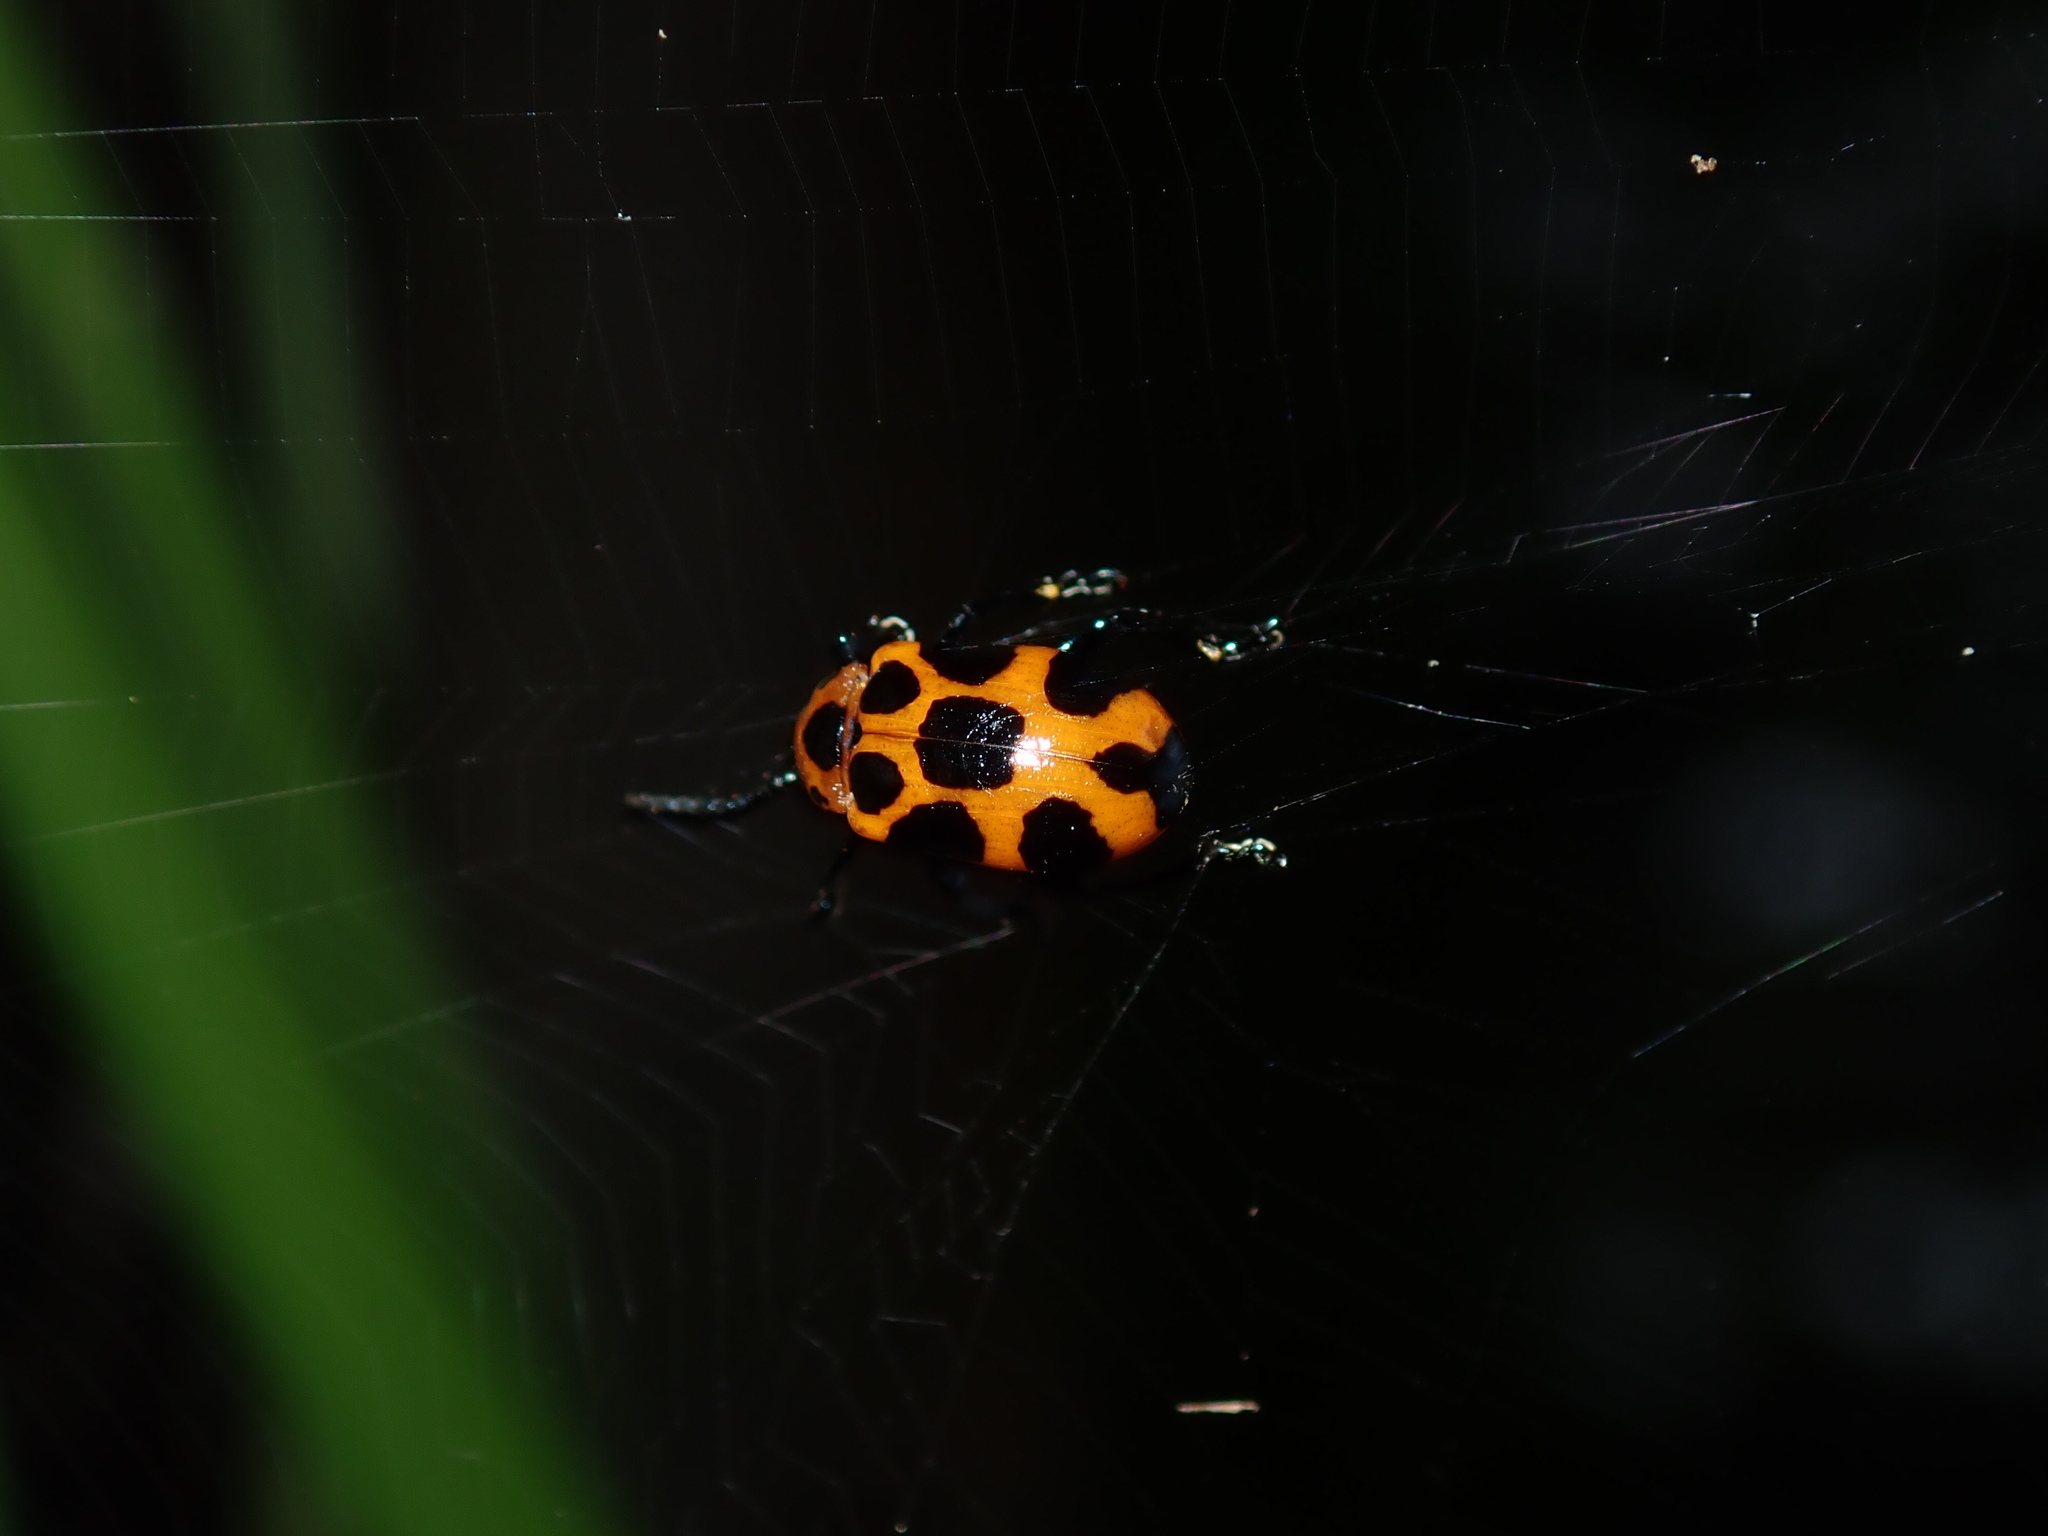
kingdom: Animalia
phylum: Arthropoda
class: Insecta
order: Coleoptera
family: Chrysomelidae
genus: Phyllocharis
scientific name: Phyllocharis
